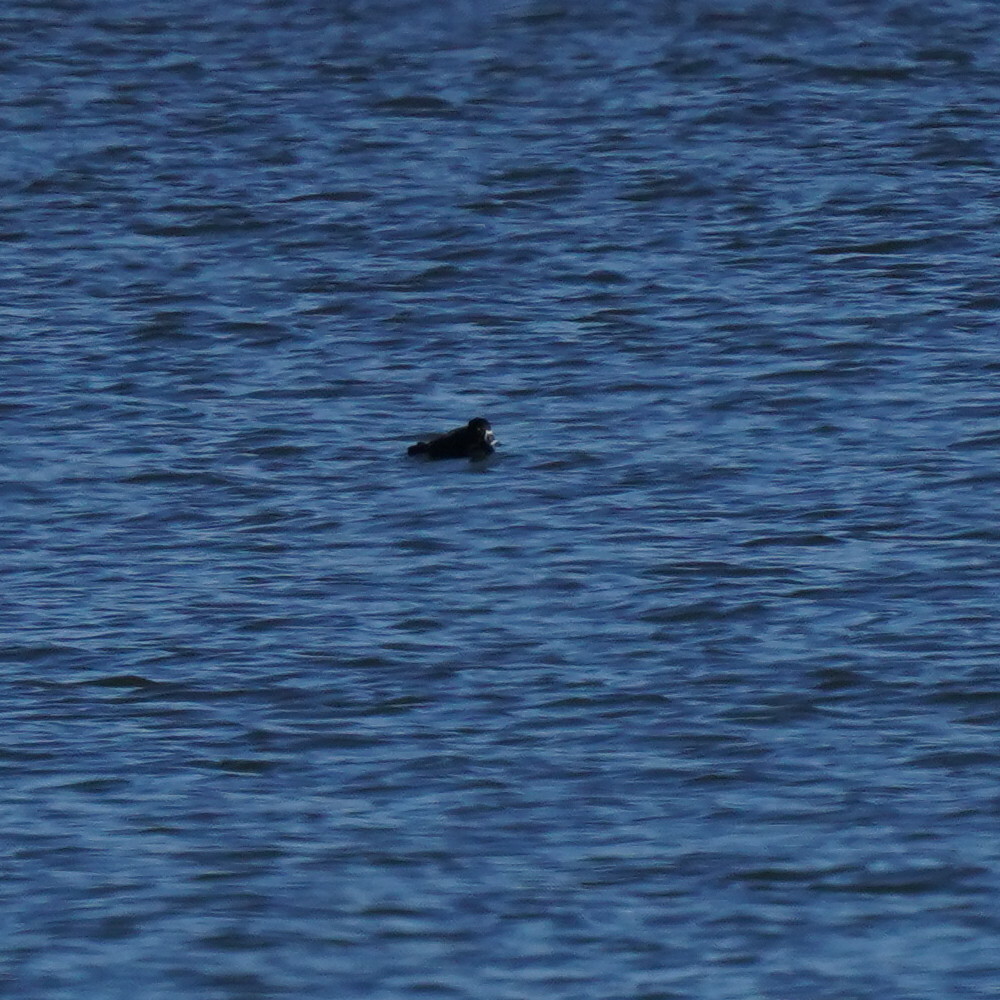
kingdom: Animalia
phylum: Chordata
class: Aves
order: Anseriformes
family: Anatidae
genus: Aythya
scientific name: Aythya collaris
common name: Ring-necked duck
